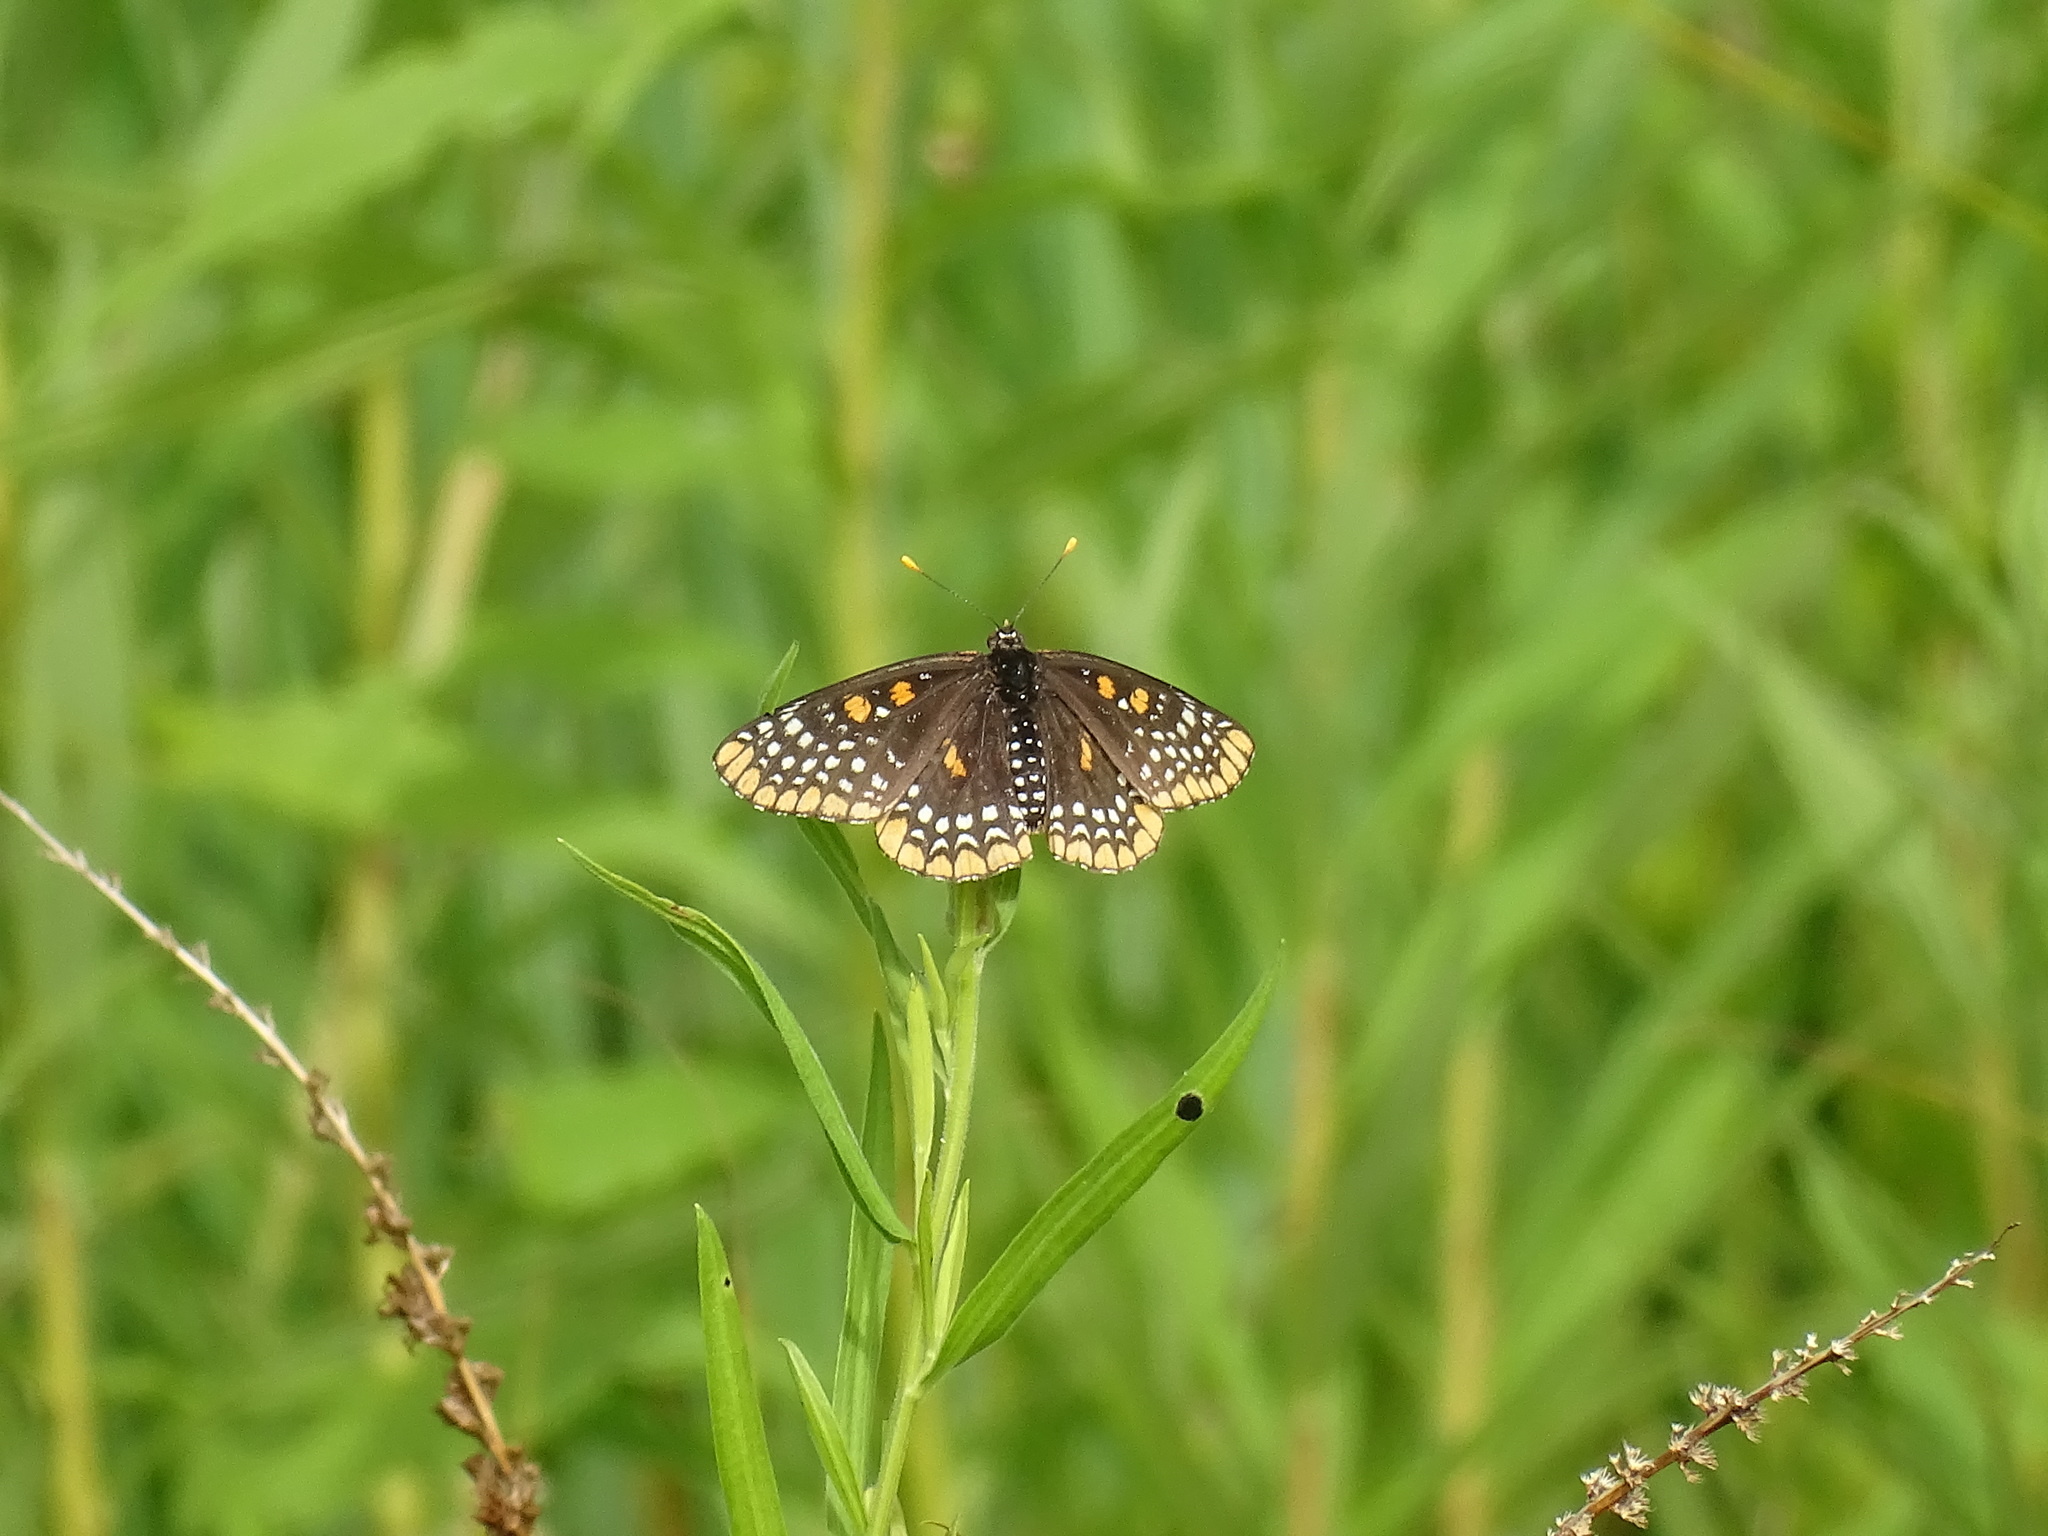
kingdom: Animalia
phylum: Arthropoda
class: Insecta
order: Lepidoptera
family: Nymphalidae
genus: Euphydryas
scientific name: Euphydryas phaeton
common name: Baltimore checkerspot
